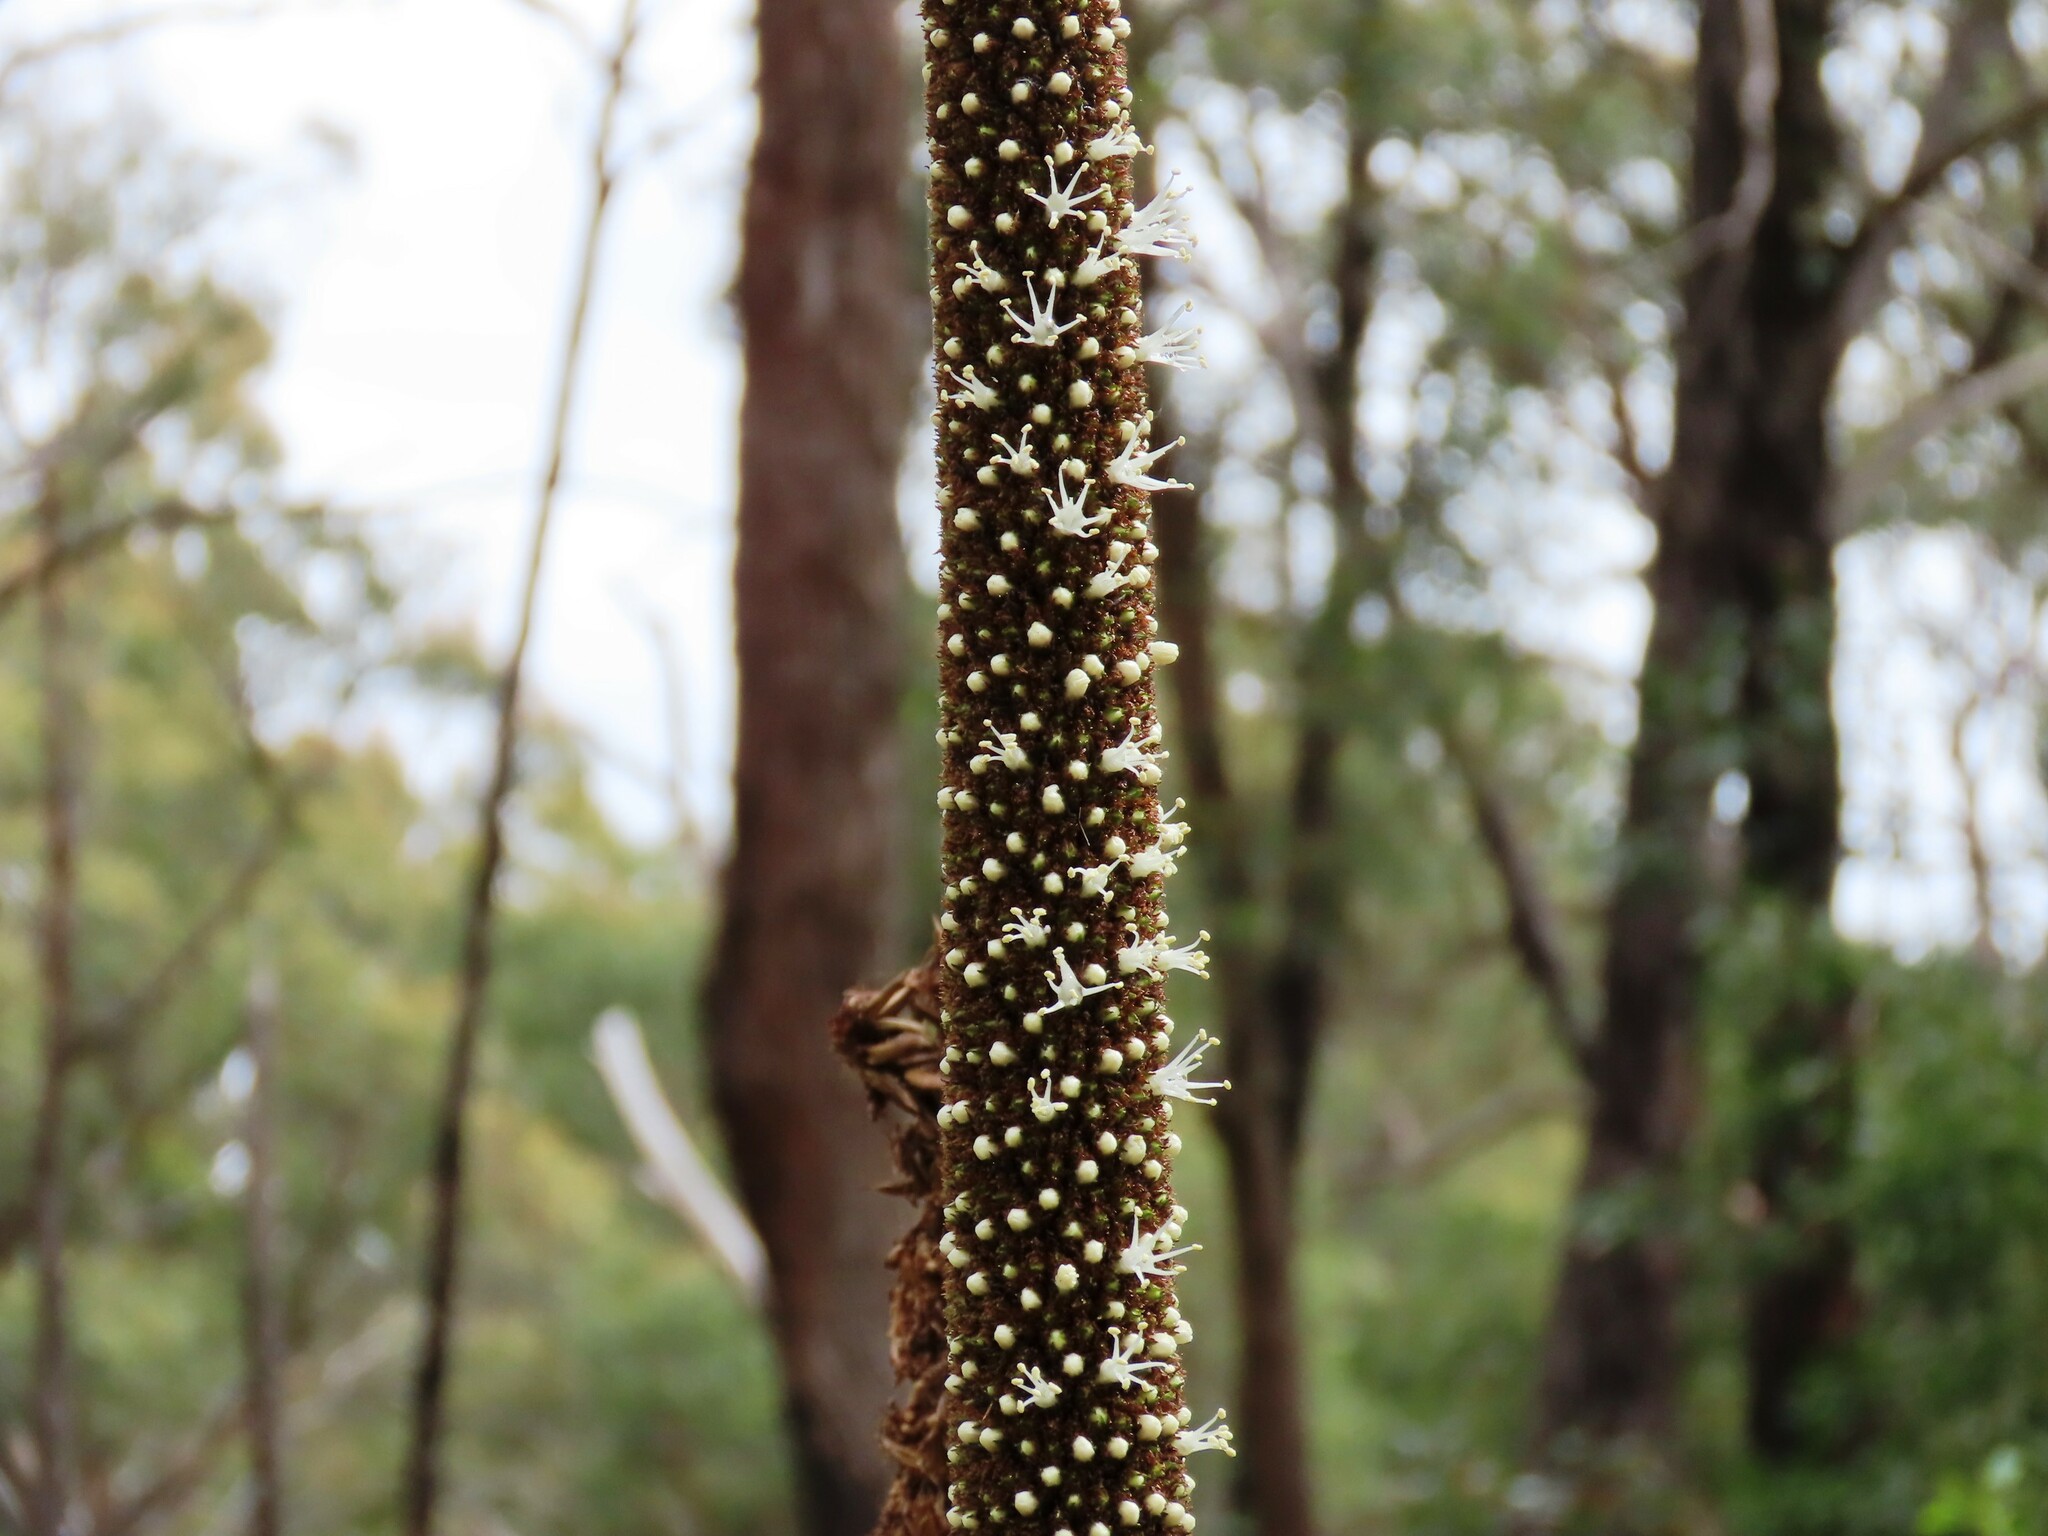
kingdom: Plantae
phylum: Tracheophyta
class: Liliopsida
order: Asparagales
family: Asphodelaceae
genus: Xanthorrhoea
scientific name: Xanthorrhoea minor
